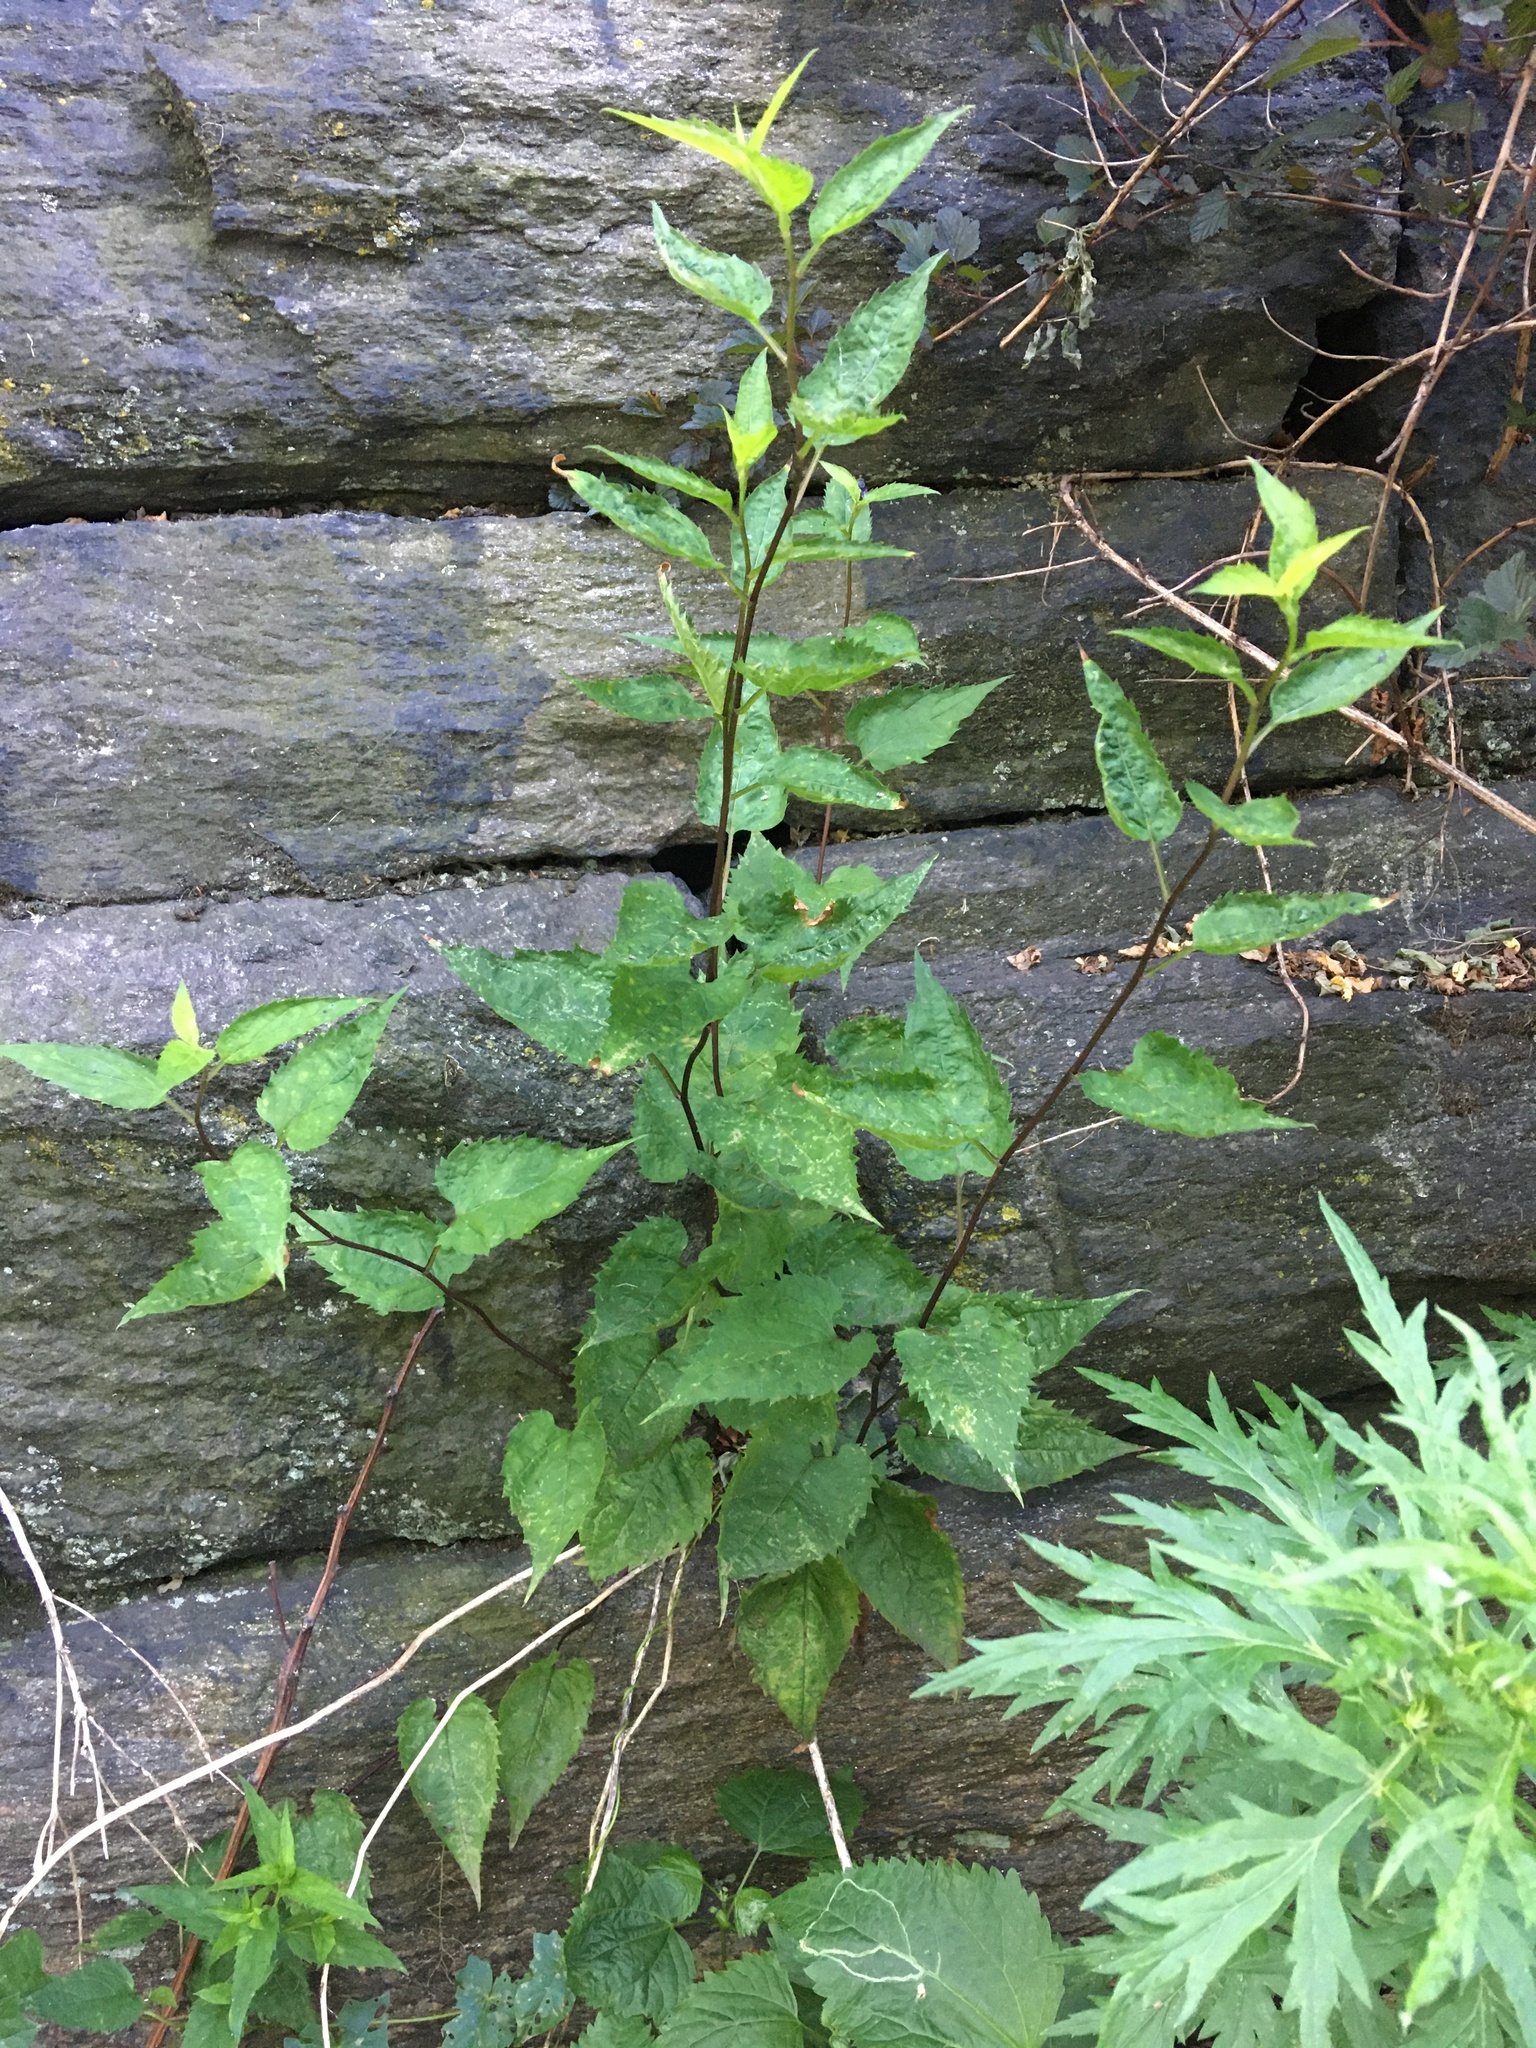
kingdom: Plantae
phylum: Tracheophyta
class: Magnoliopsida
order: Asterales
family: Asteraceae
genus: Eurybia
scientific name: Eurybia divaricata
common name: White wood aster
